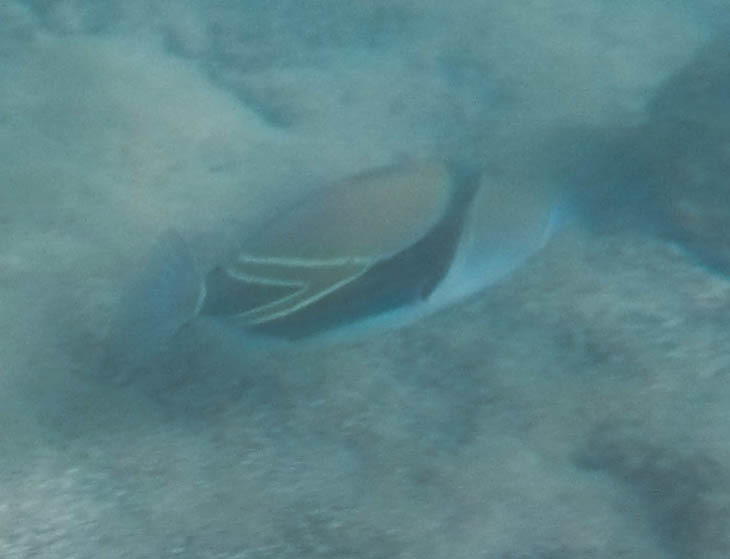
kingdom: Animalia
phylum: Chordata
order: Tetraodontiformes
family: Balistidae
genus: Rhinecanthus
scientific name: Rhinecanthus rectangulus
